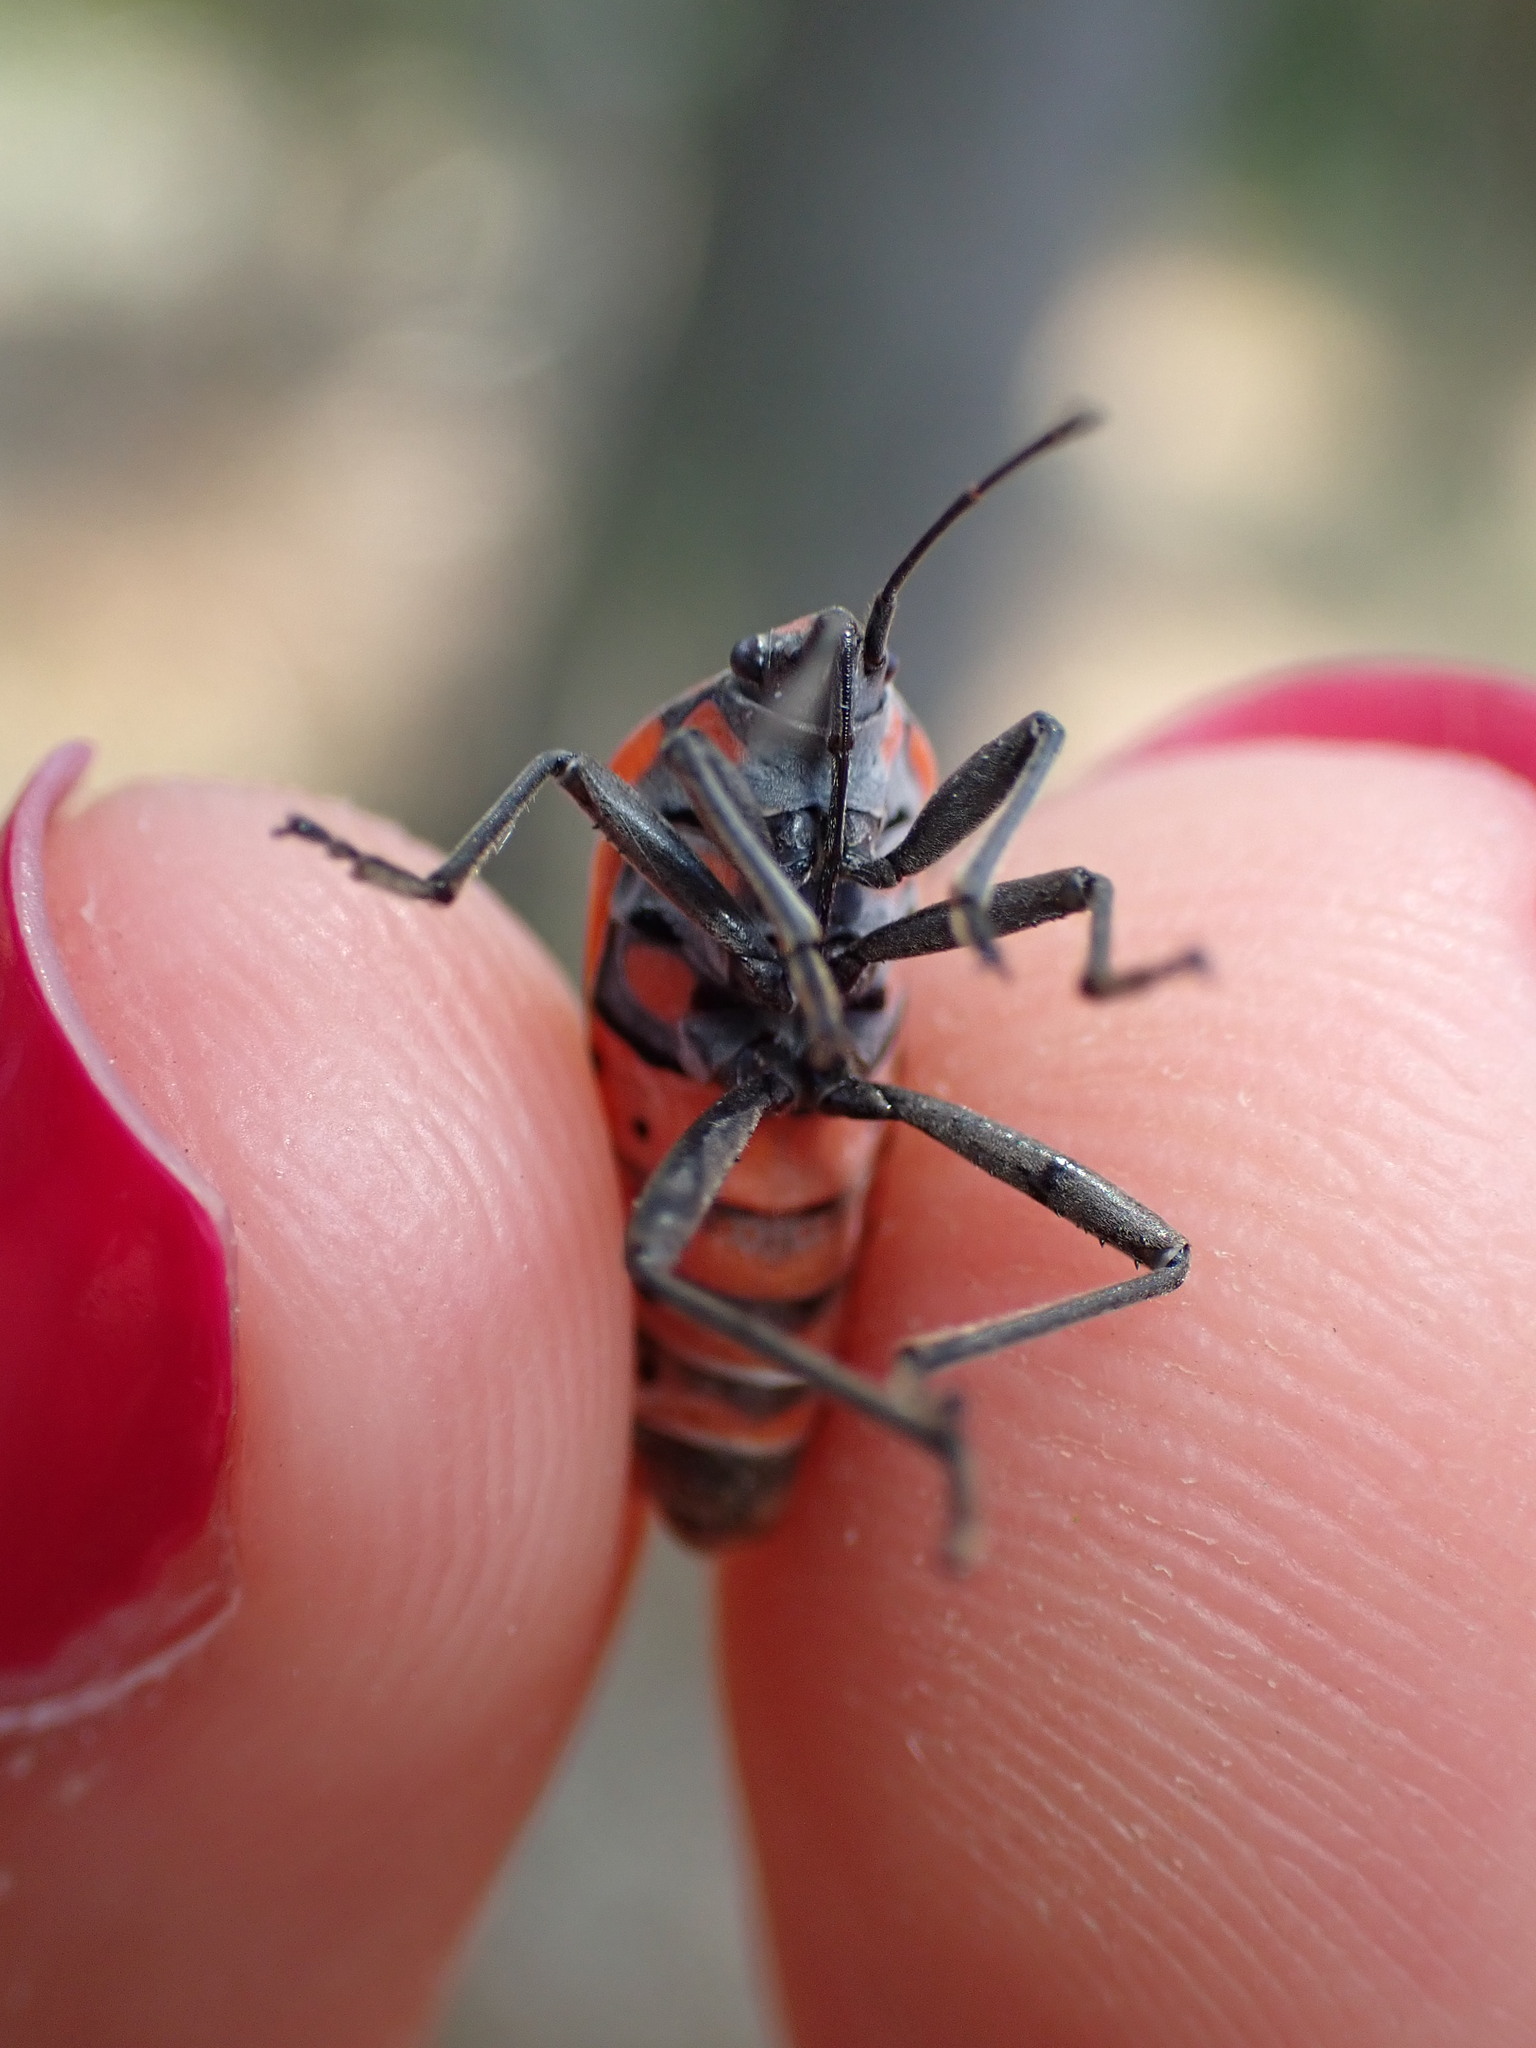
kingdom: Animalia
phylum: Arthropoda
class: Insecta
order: Hemiptera
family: Lygaeidae
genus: Spilostethus
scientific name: Spilostethus pandurus
